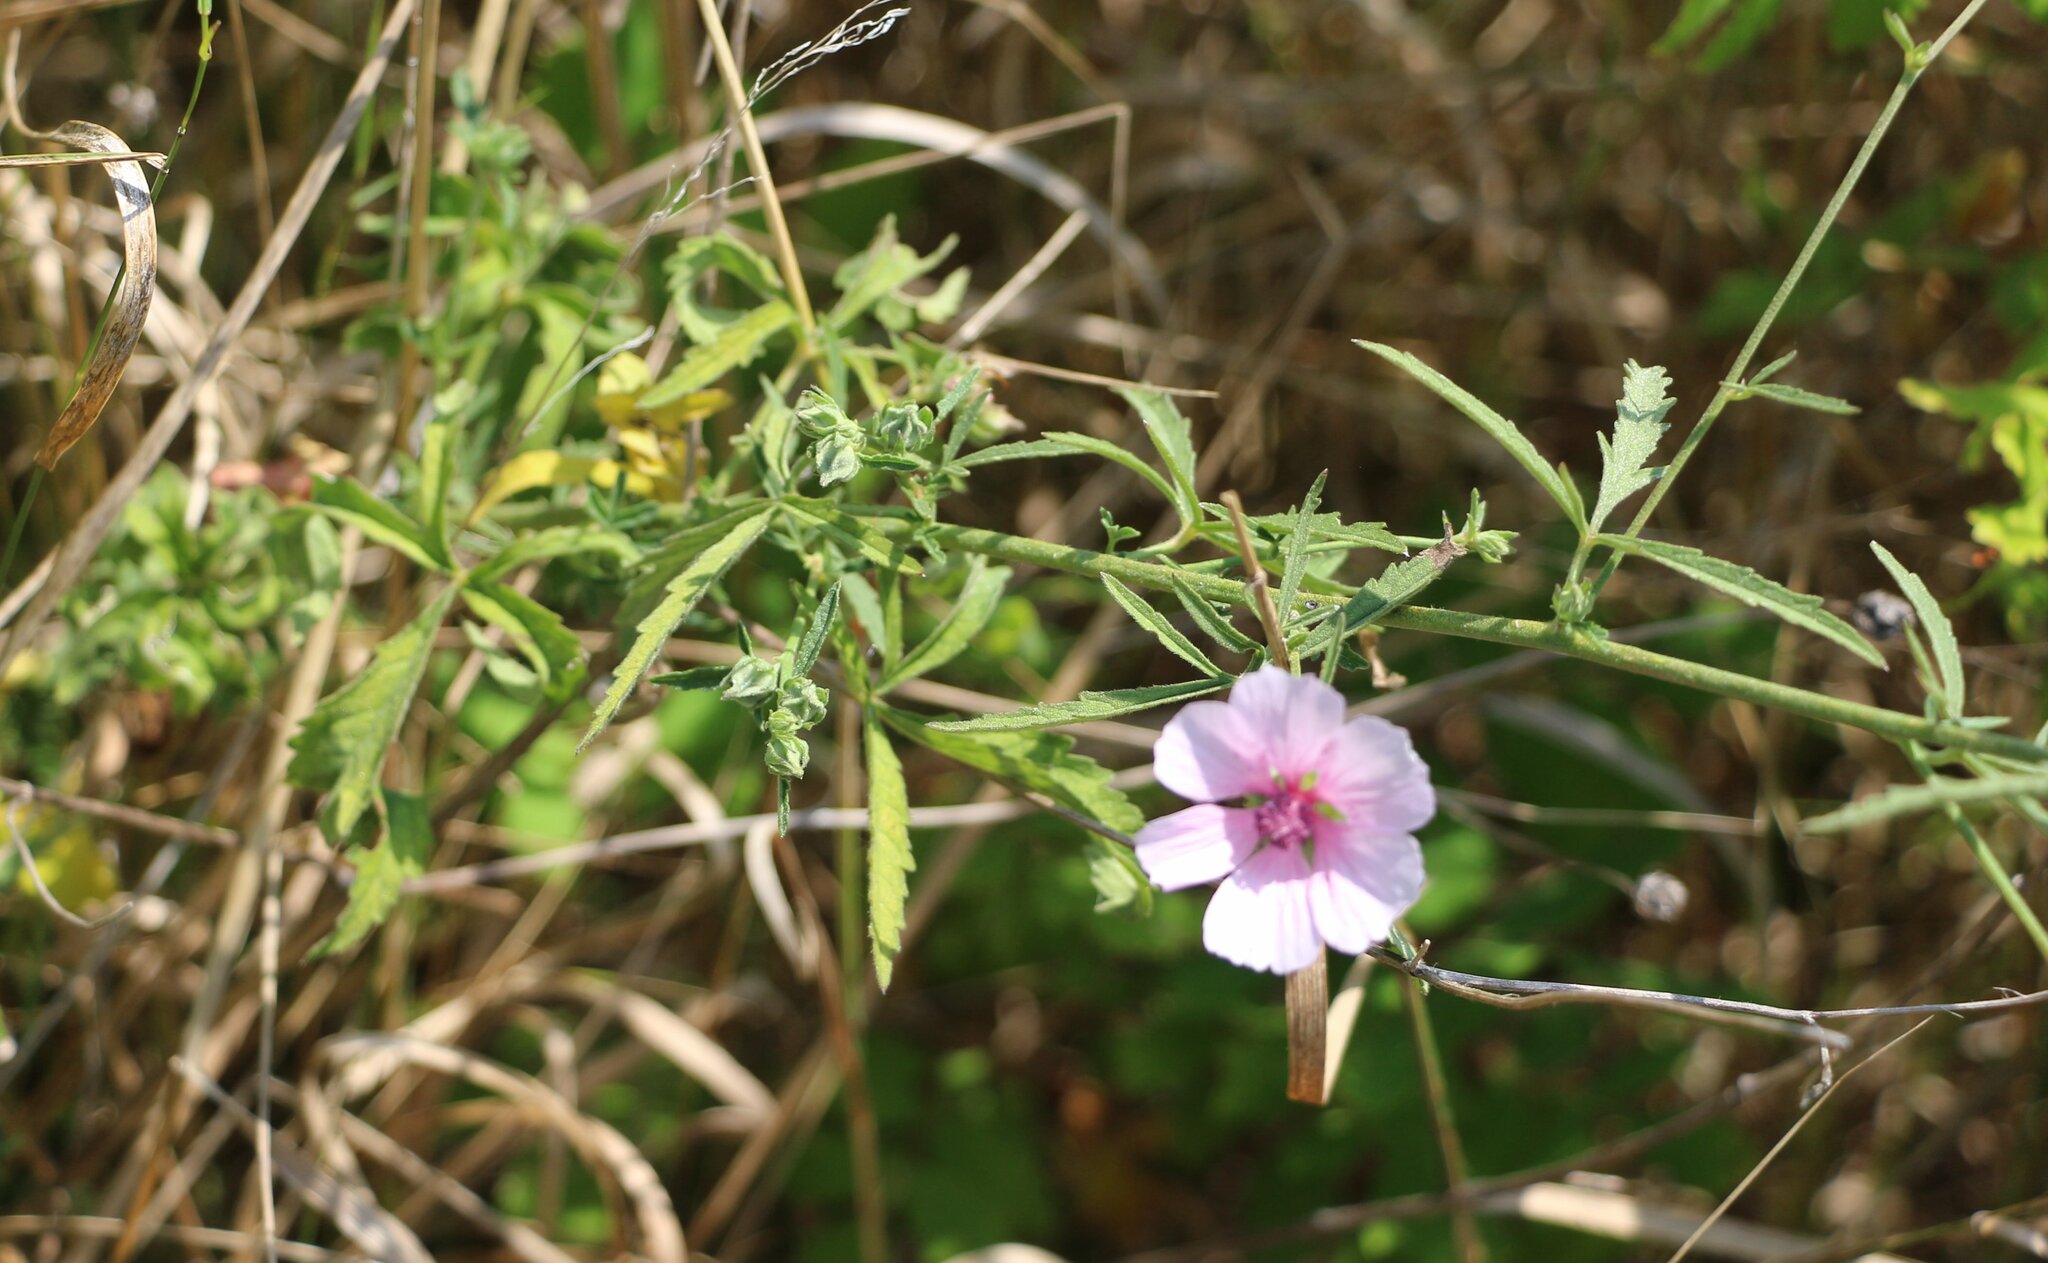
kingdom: Plantae
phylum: Tracheophyta
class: Magnoliopsida
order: Malvales
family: Malvaceae
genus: Althaea
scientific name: Althaea cannabina
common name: Palm-leaf marshmallow
